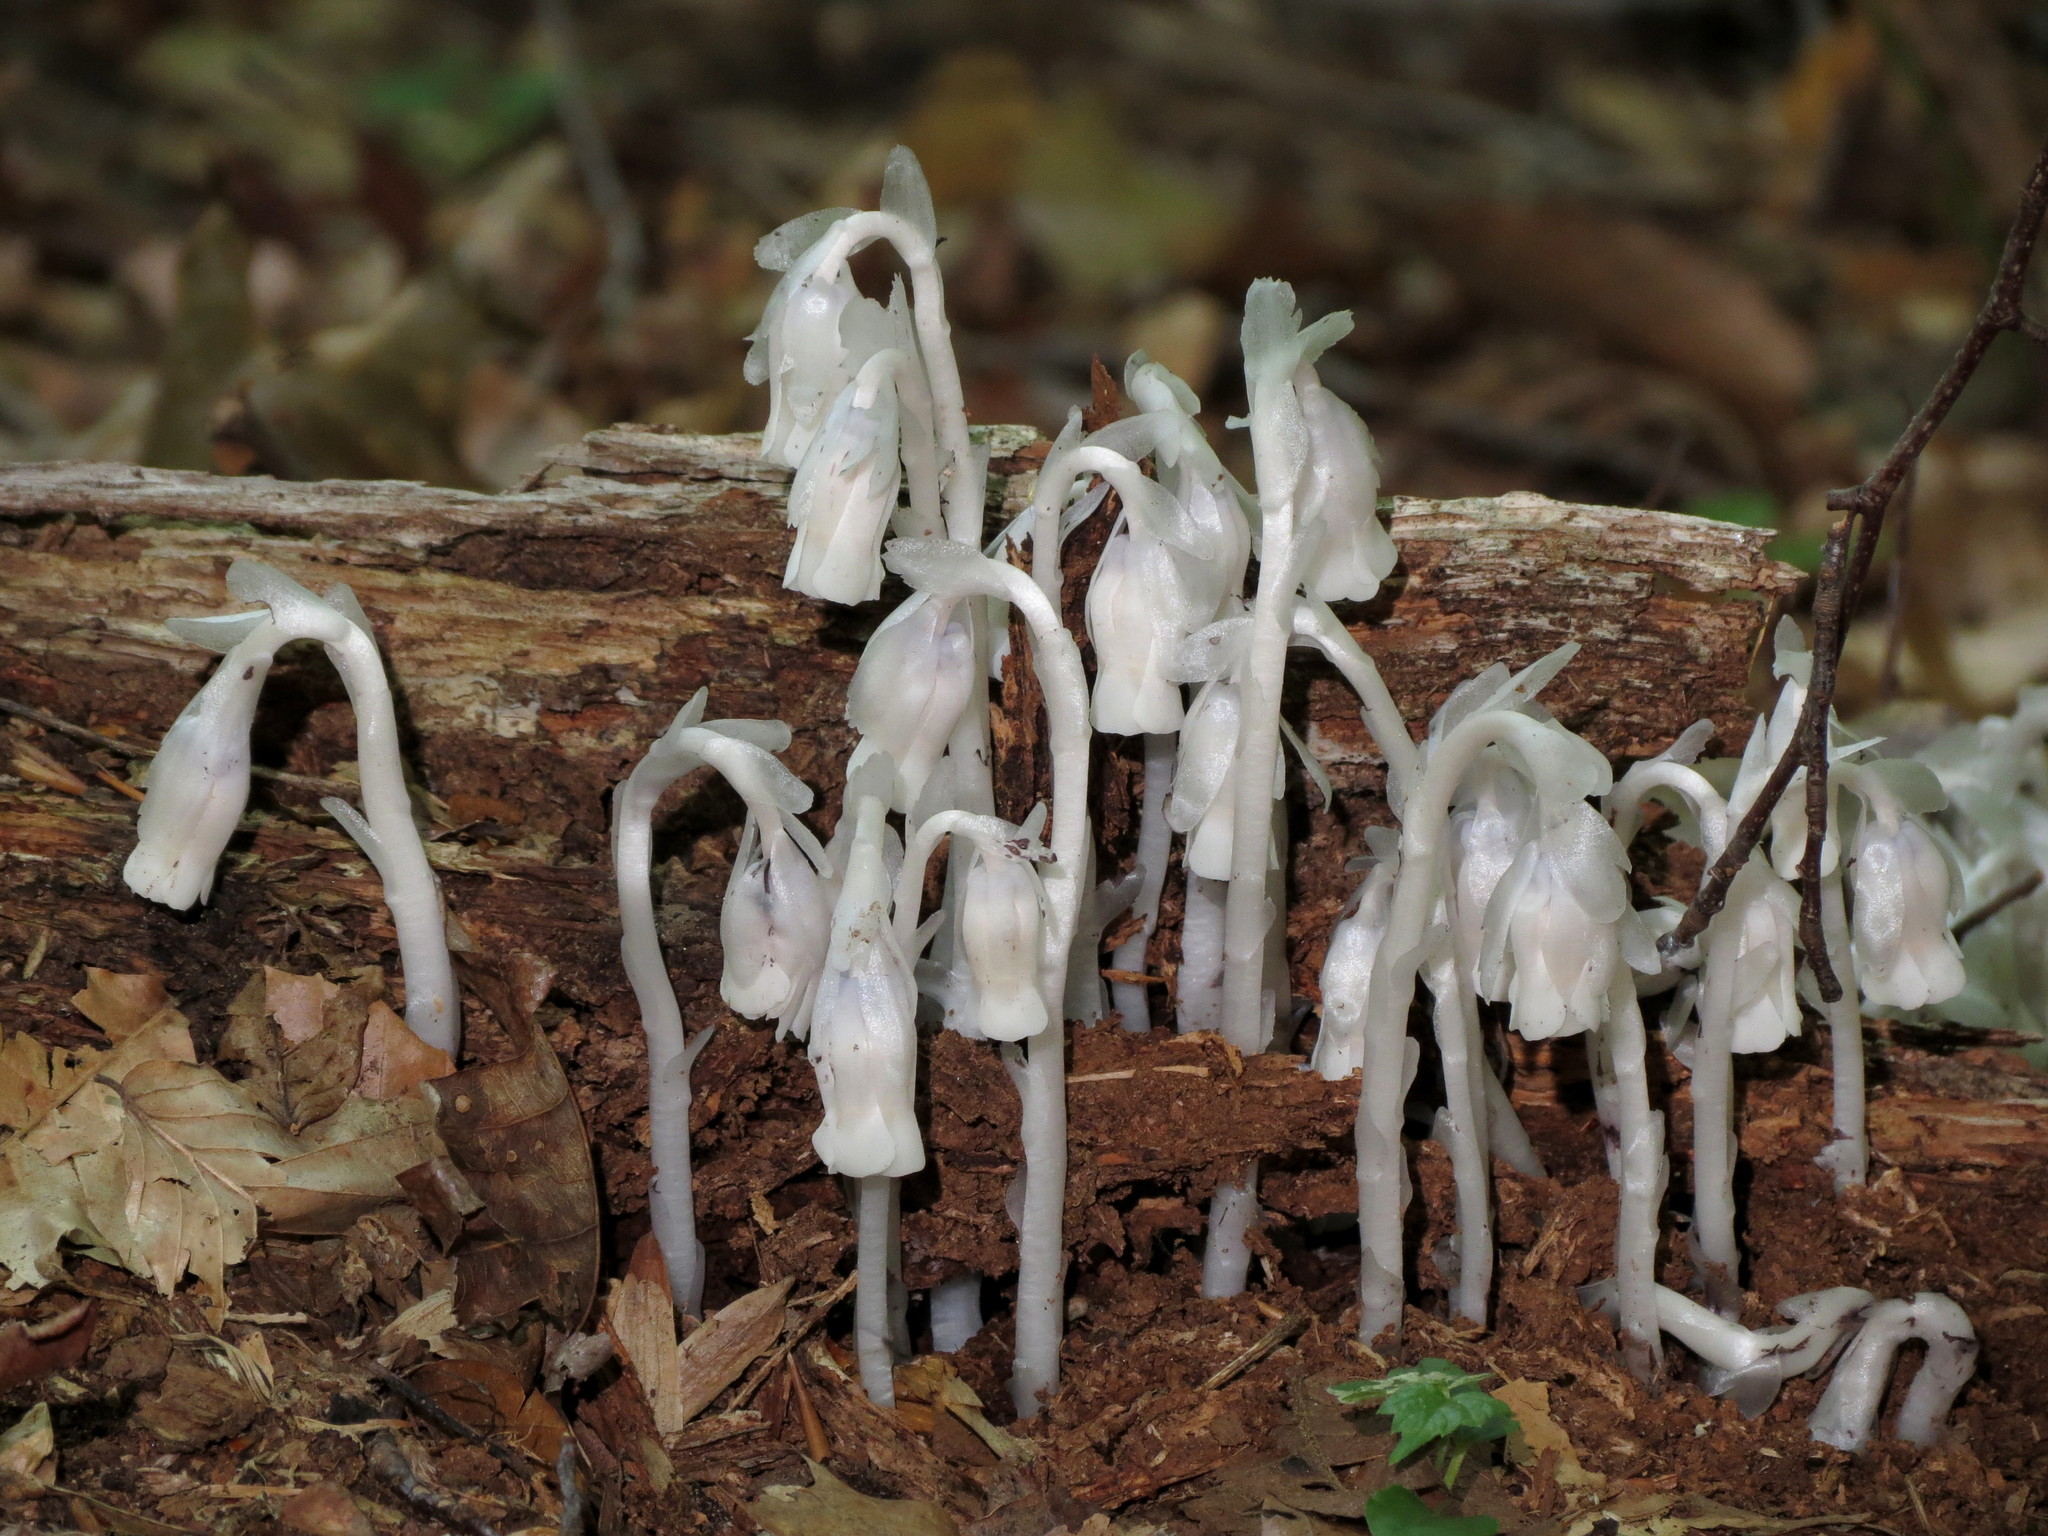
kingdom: Plantae
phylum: Tracheophyta
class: Magnoliopsida
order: Ericales
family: Ericaceae
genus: Monotropa
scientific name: Monotropa uniflora
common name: Convulsion root
